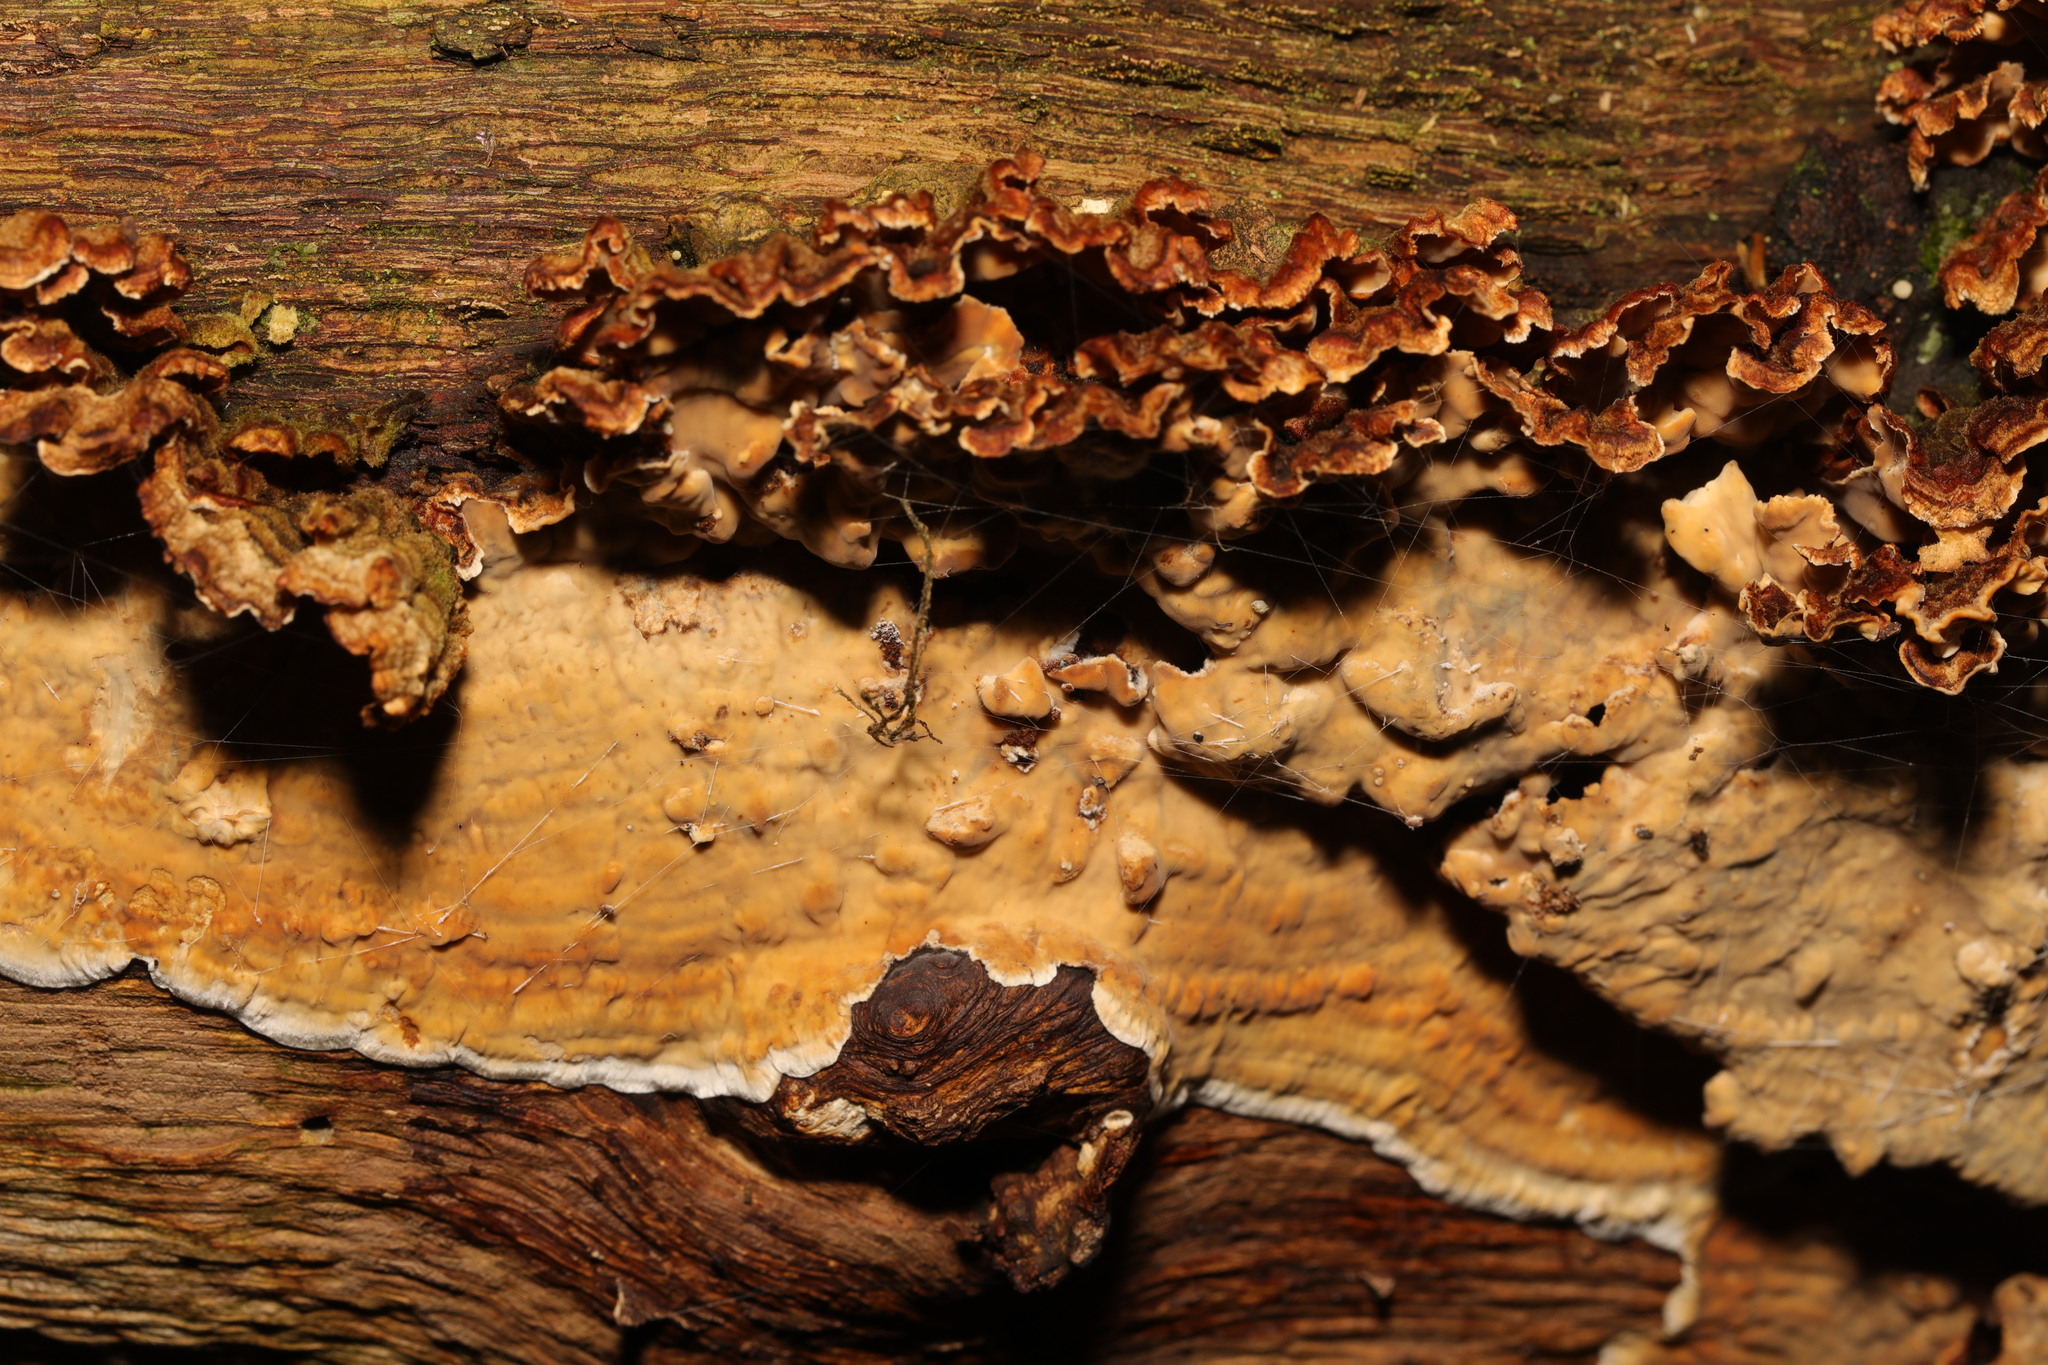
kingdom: Fungi
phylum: Basidiomycota
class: Agaricomycetes
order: Russulales
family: Stereaceae
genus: Stereum
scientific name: Stereum gausapatum
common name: Bleeding oak crust
